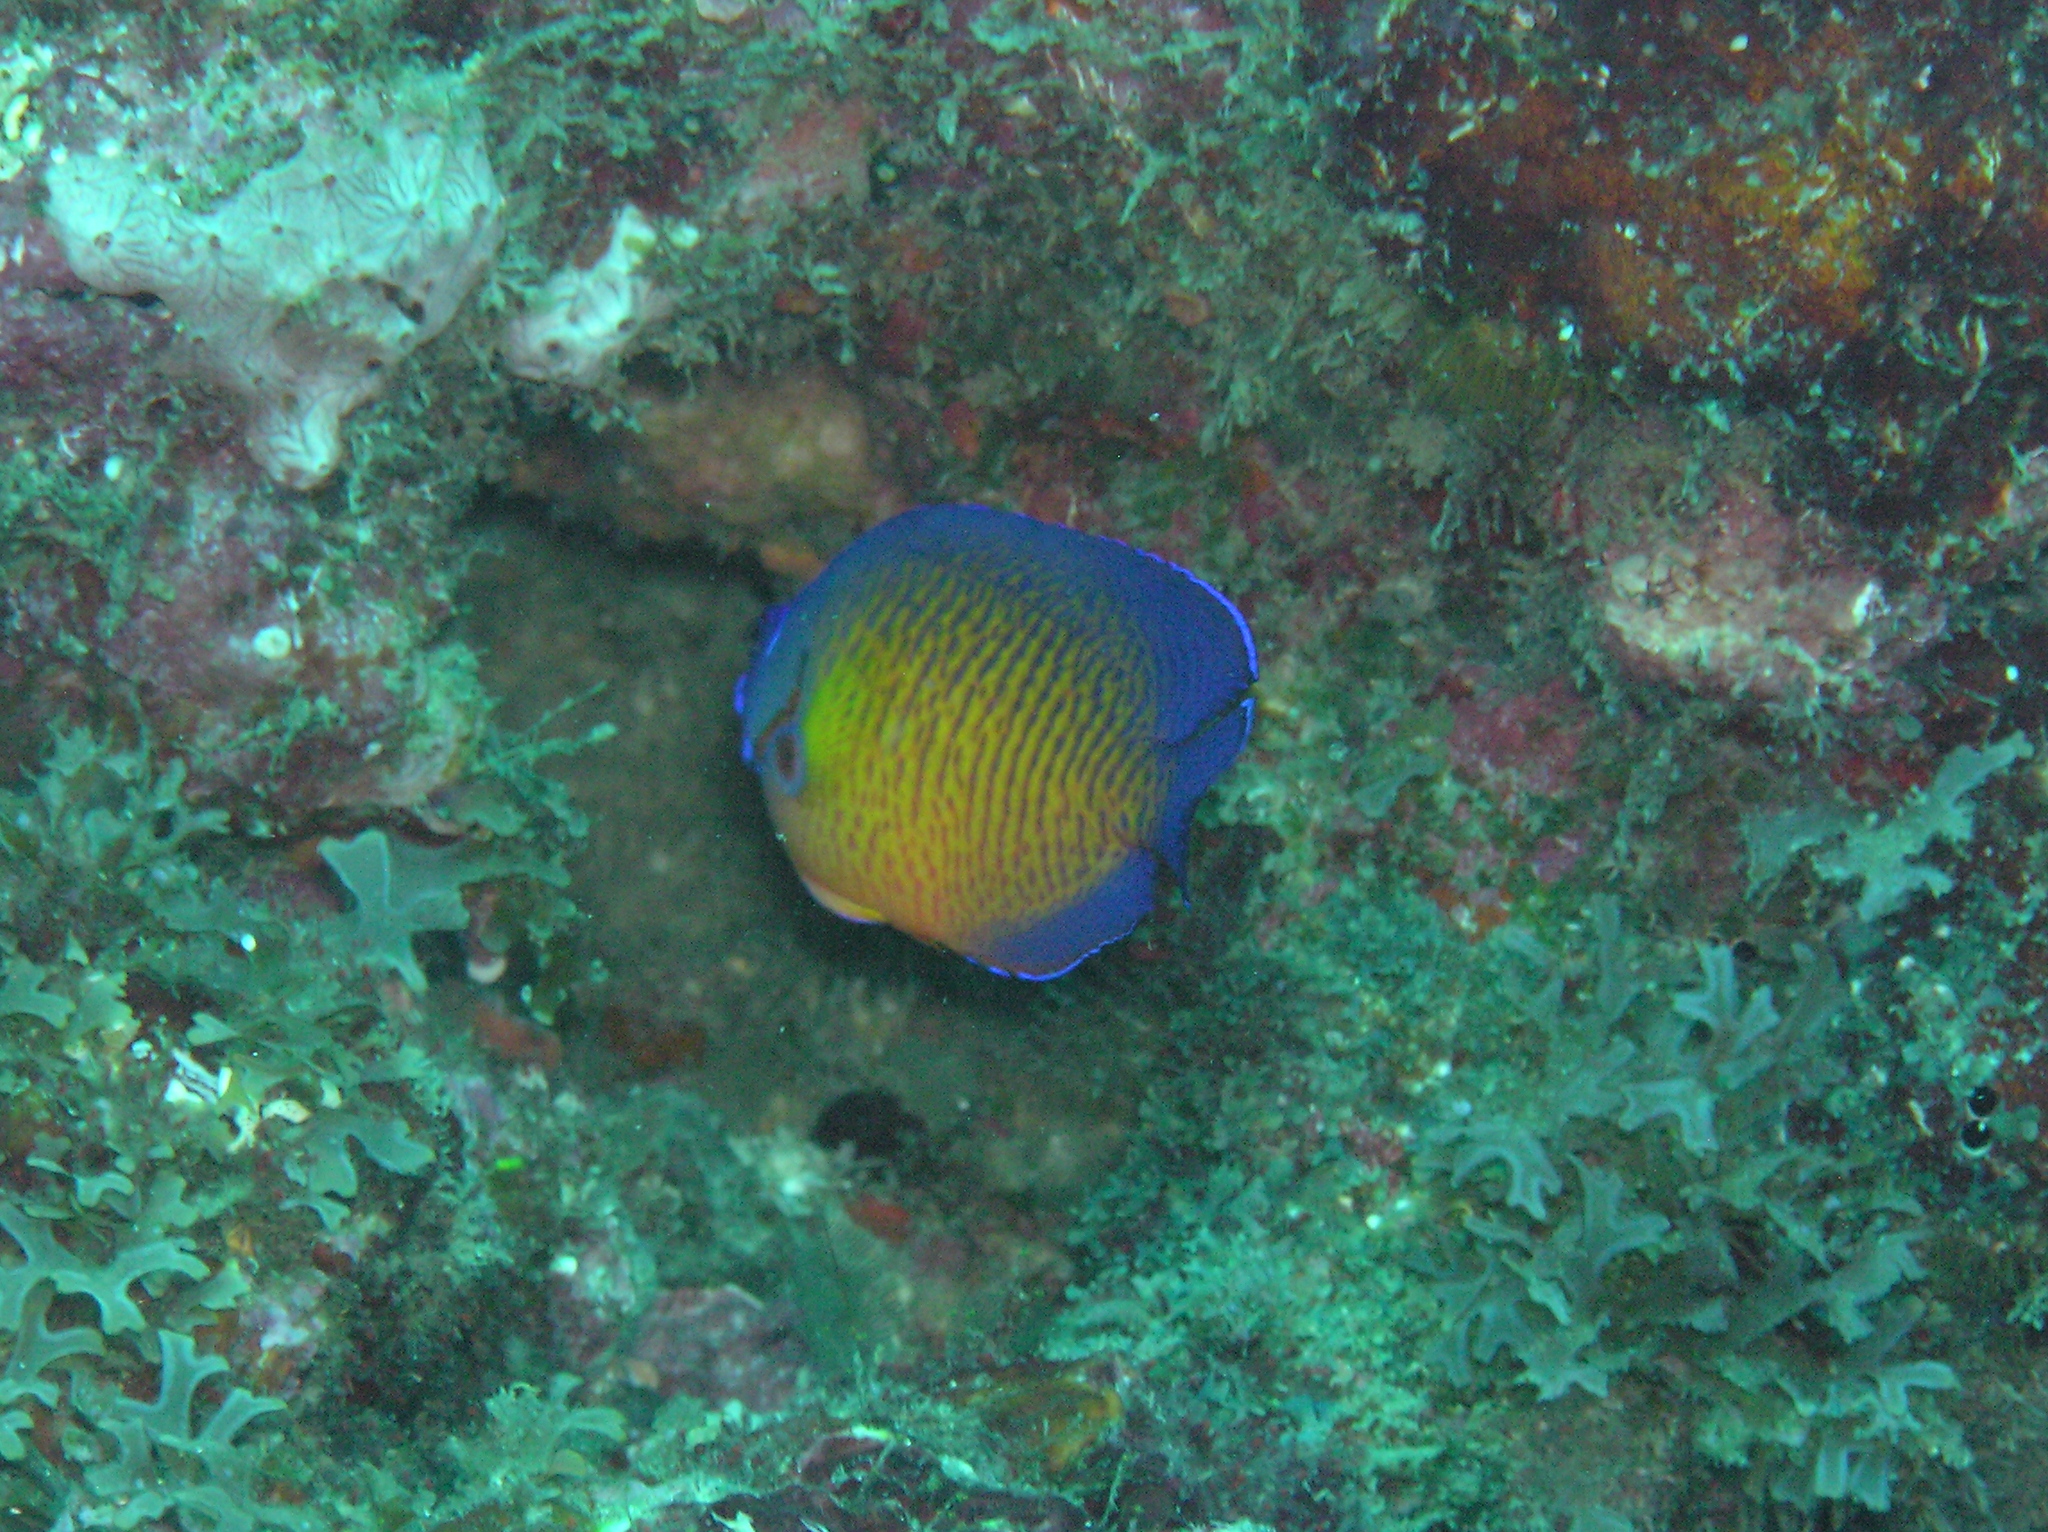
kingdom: Animalia
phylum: Chordata
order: Perciformes
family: Pomacanthidae
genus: Centropyge
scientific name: Centropyge bispinosa
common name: Coral beauty
